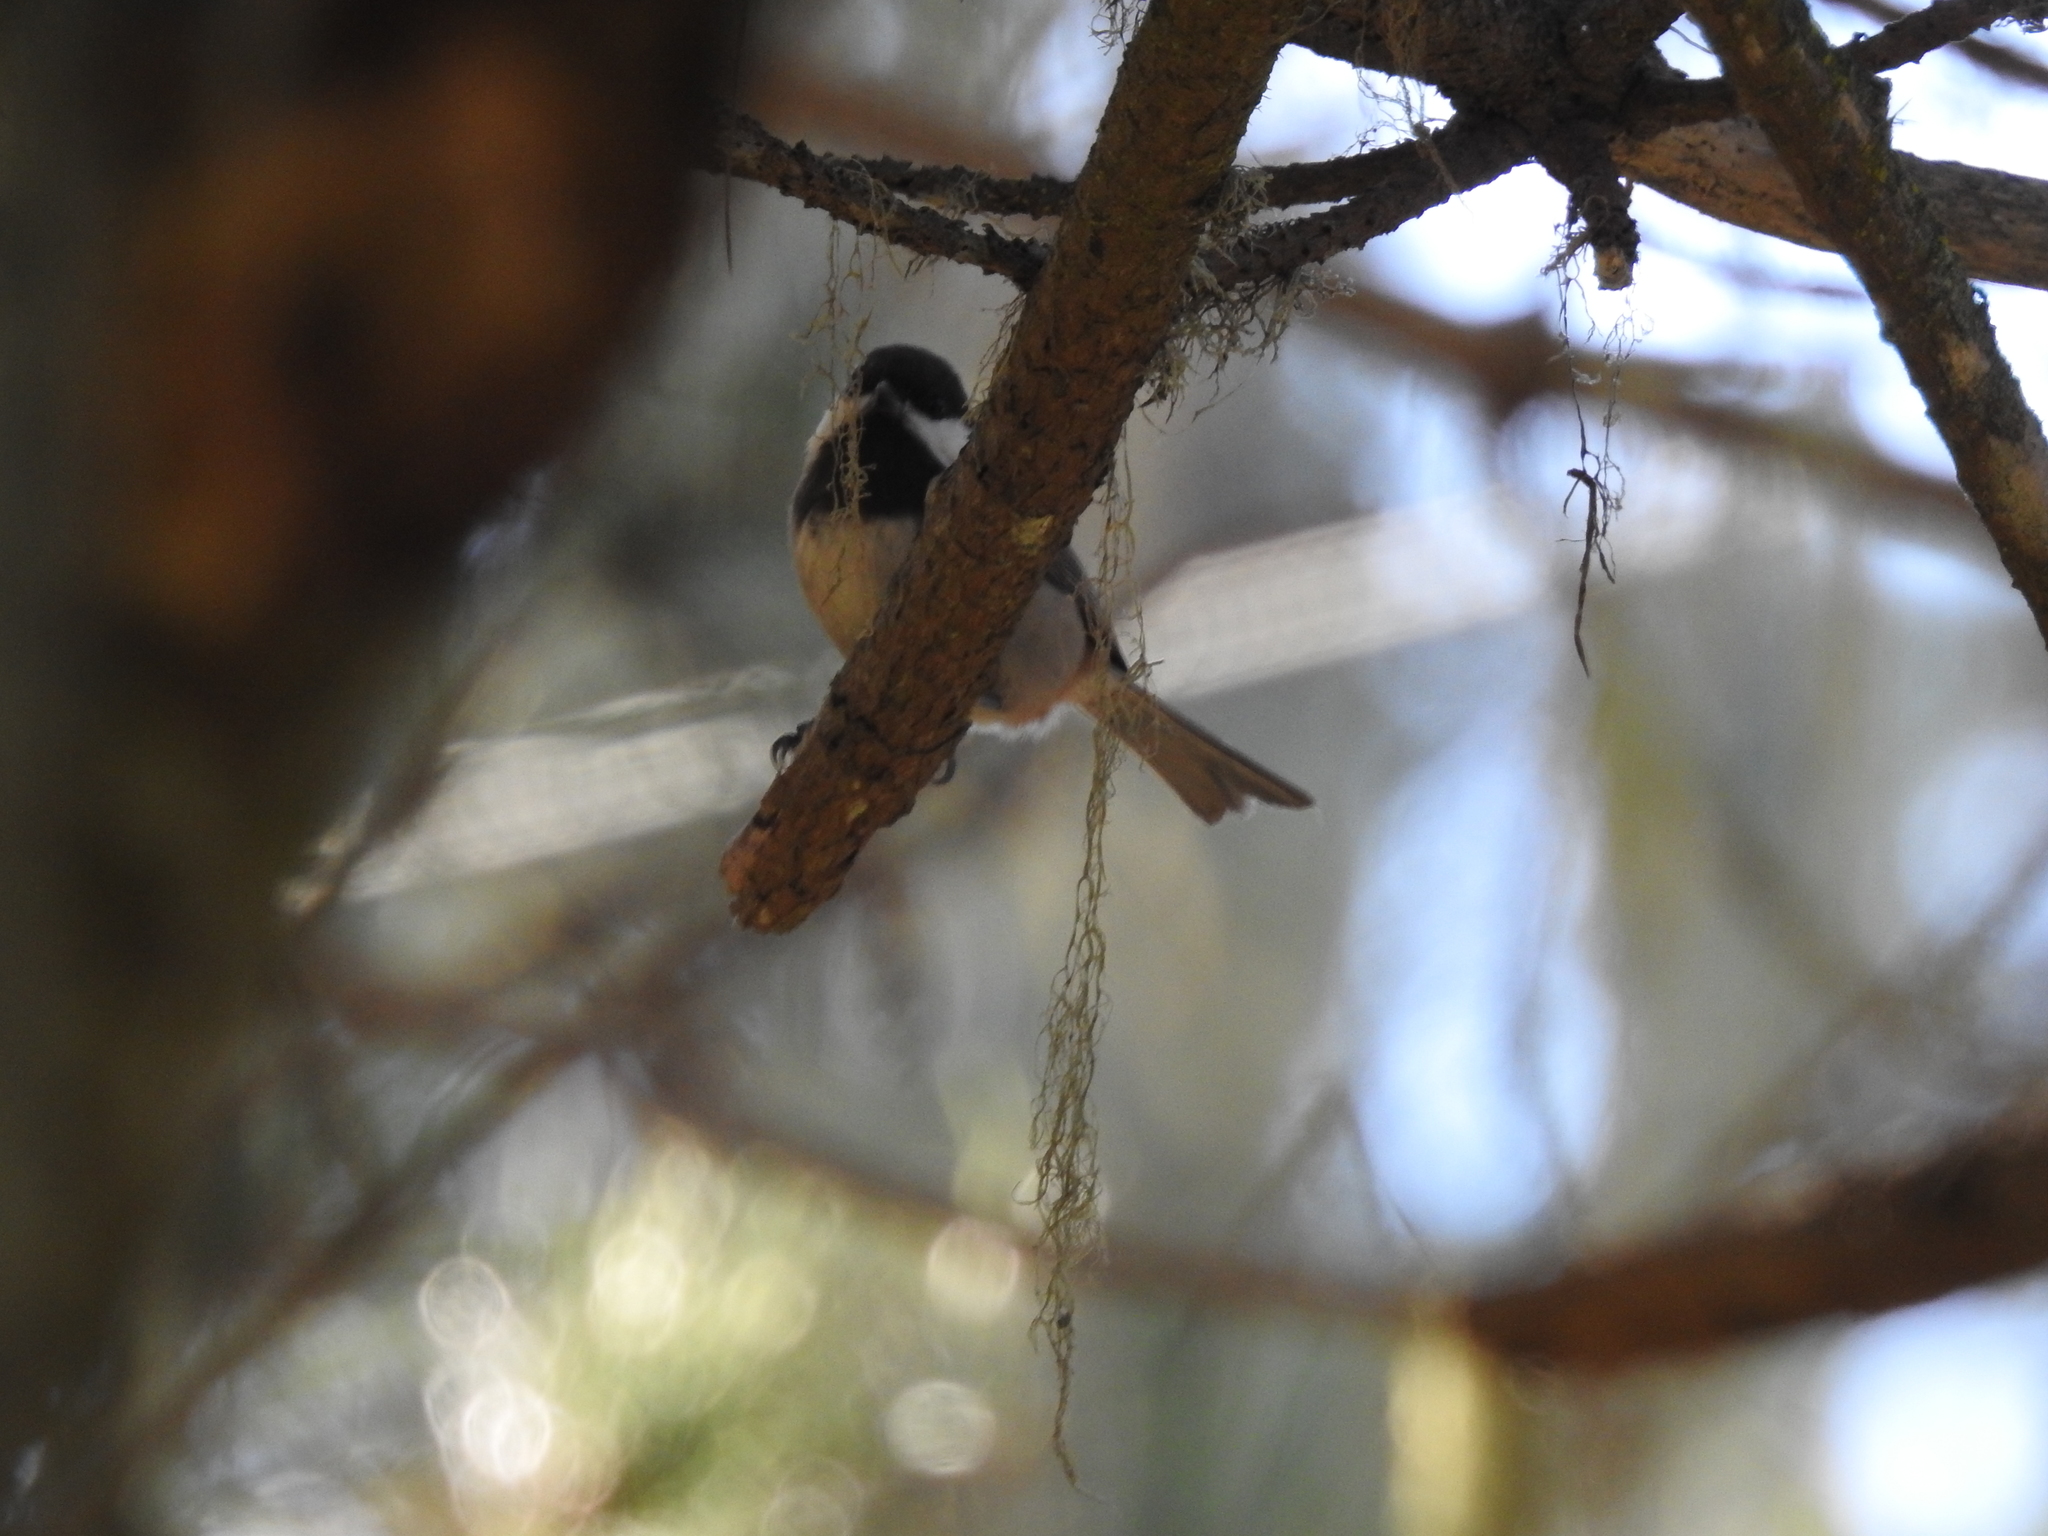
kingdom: Animalia
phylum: Chordata
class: Aves
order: Passeriformes
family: Paridae
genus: Poecile
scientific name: Poecile rufescens
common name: Chestnut-backed chickadee
